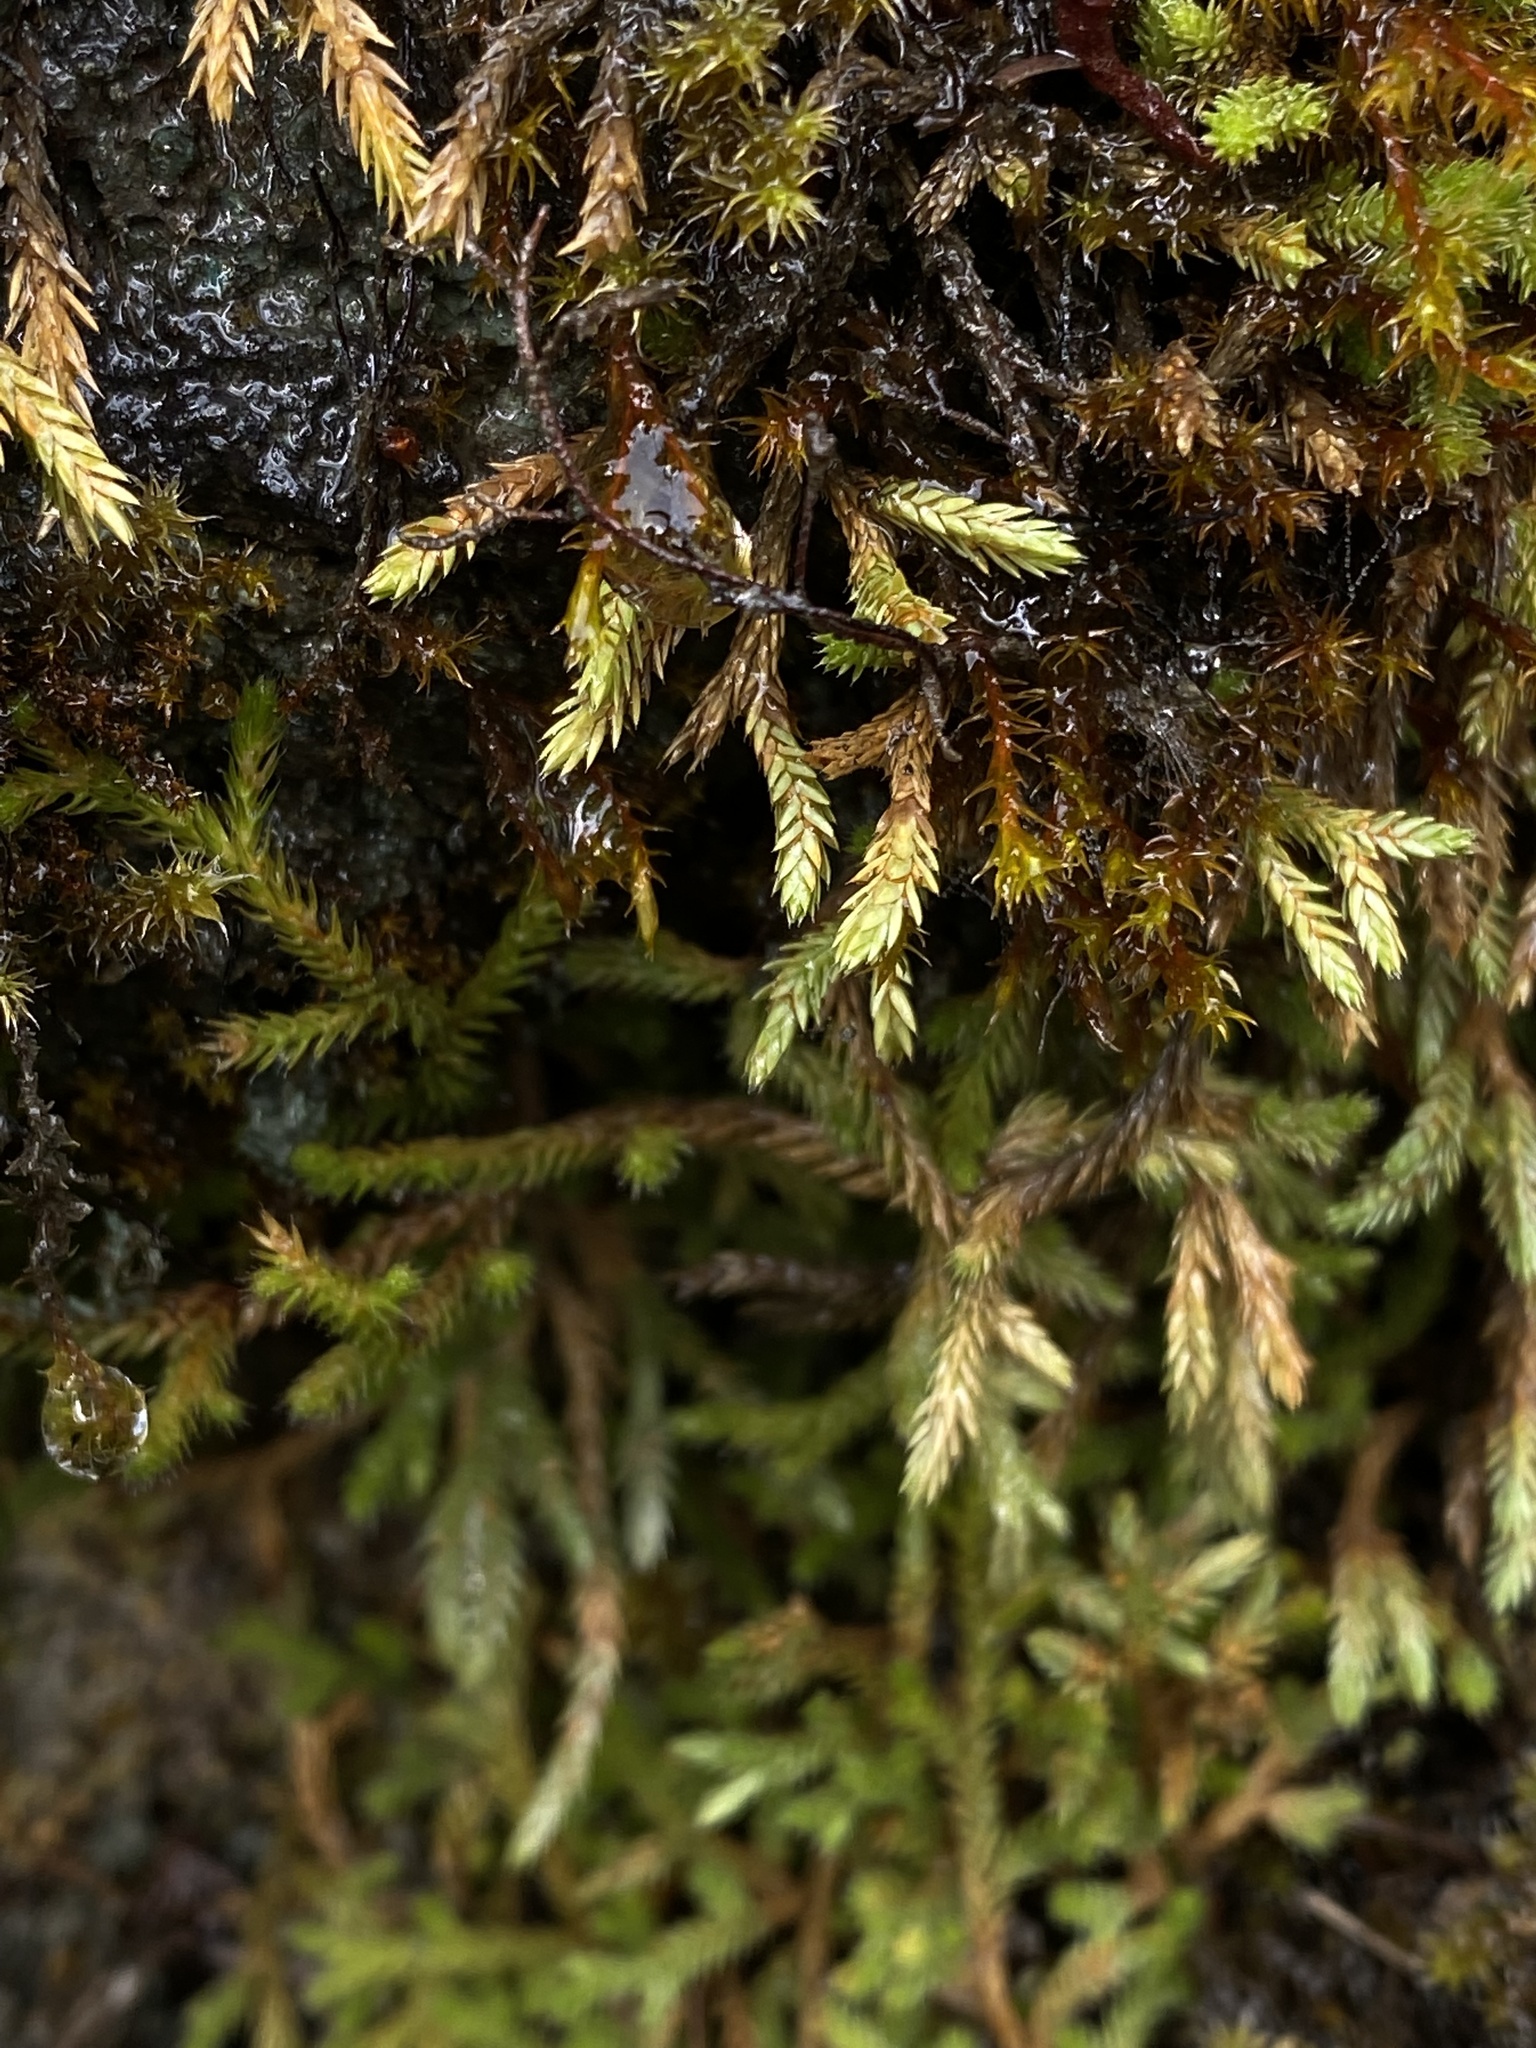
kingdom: Plantae
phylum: Tracheophyta
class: Lycopodiopsida
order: Selaginellales
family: Selaginellaceae
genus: Selaginella
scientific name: Selaginella wallacei
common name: Wallace's selaginella
